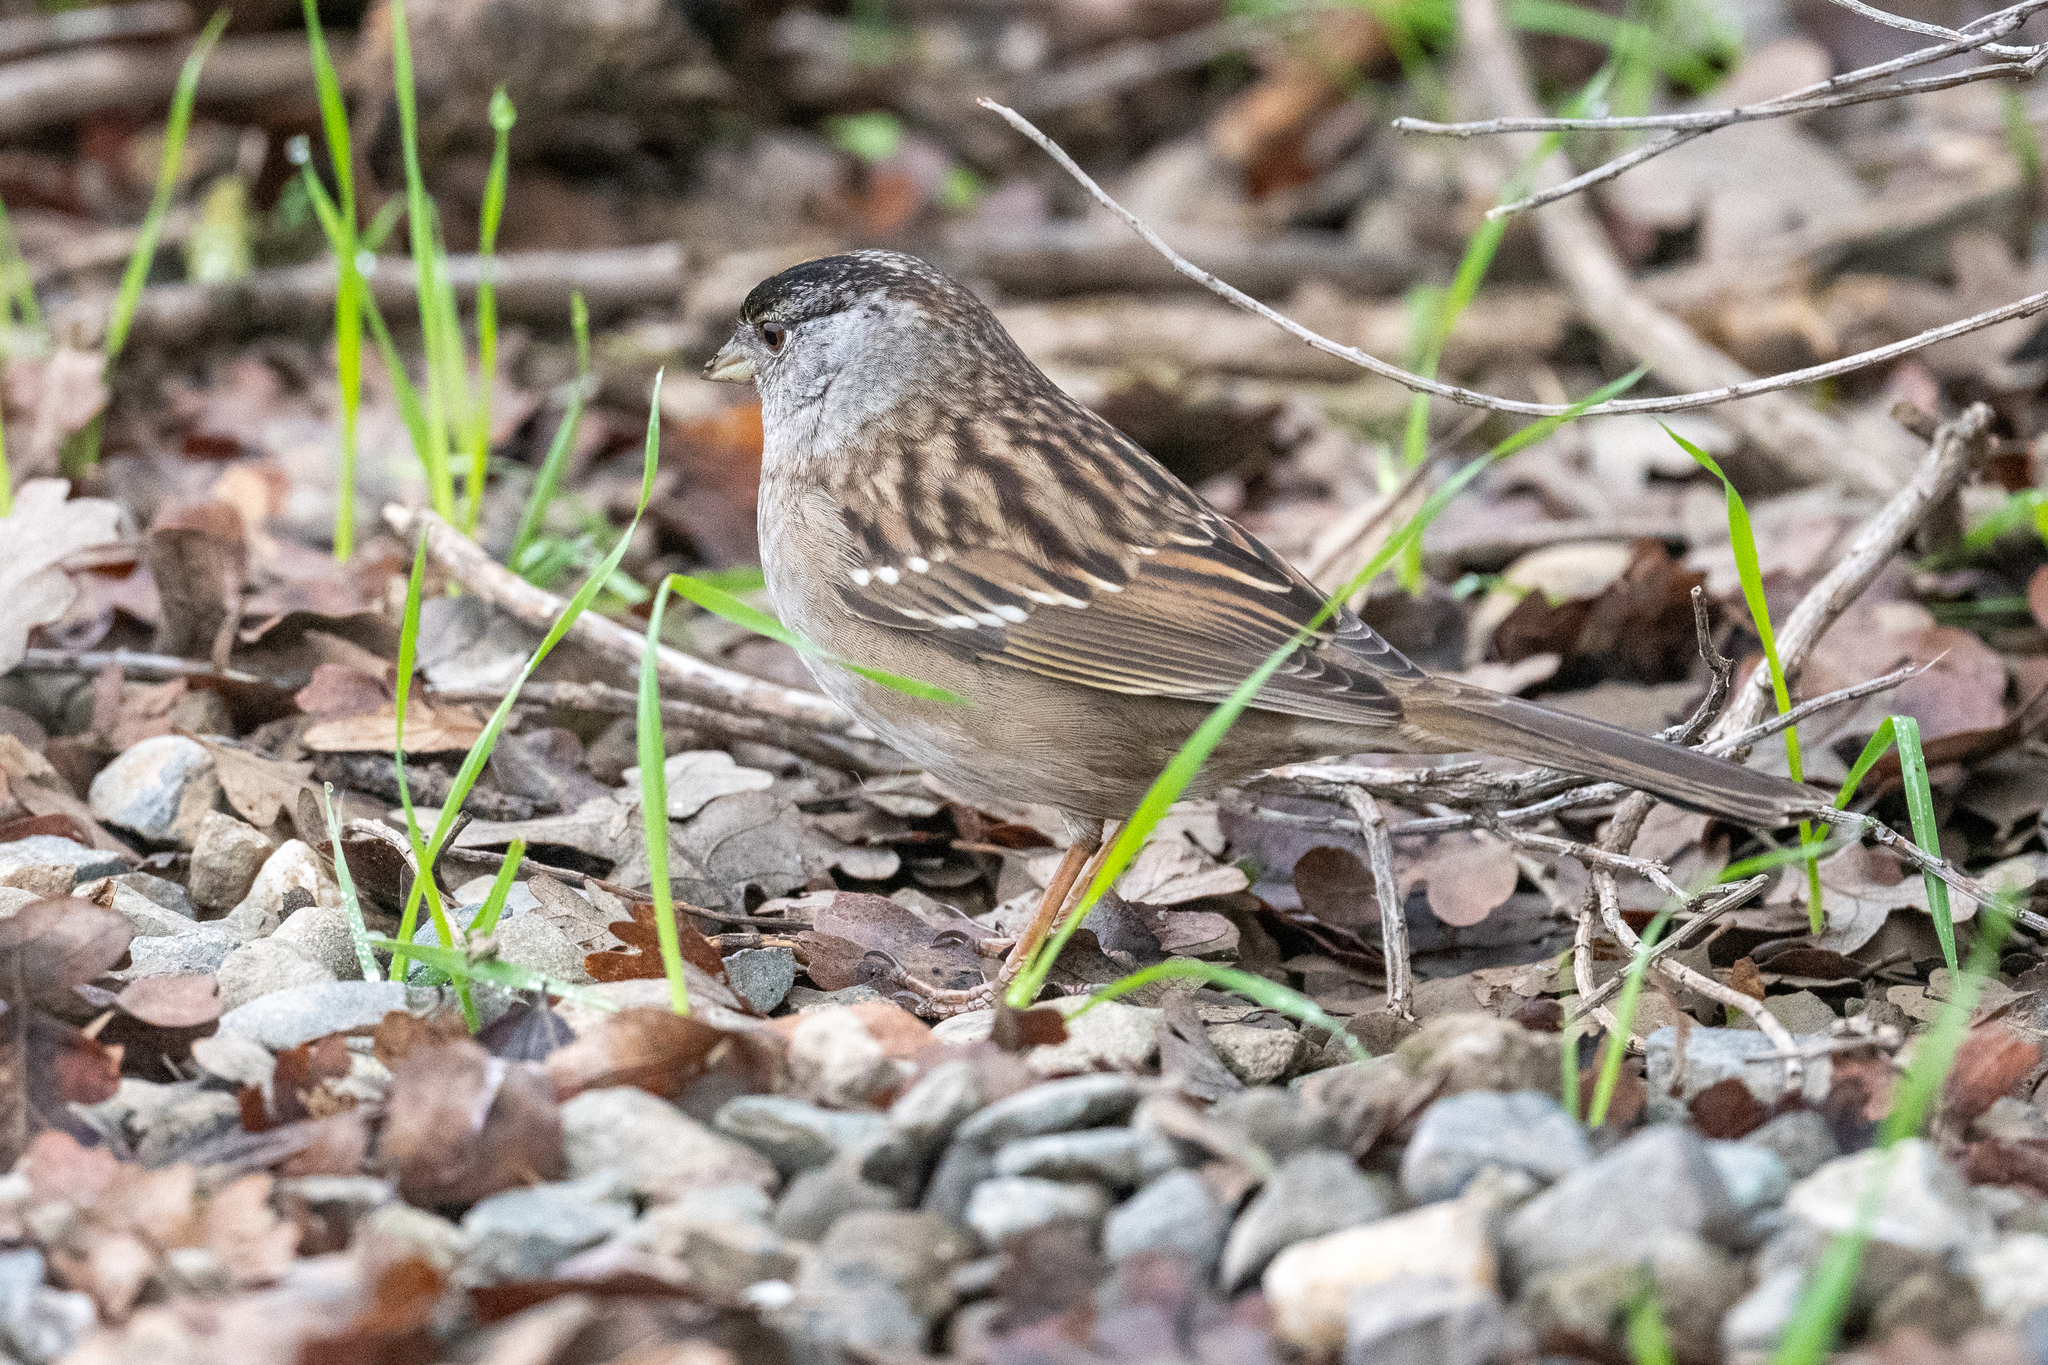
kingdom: Animalia
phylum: Chordata
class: Aves
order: Passeriformes
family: Passerellidae
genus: Zonotrichia
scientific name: Zonotrichia atricapilla
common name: Golden-crowned sparrow
